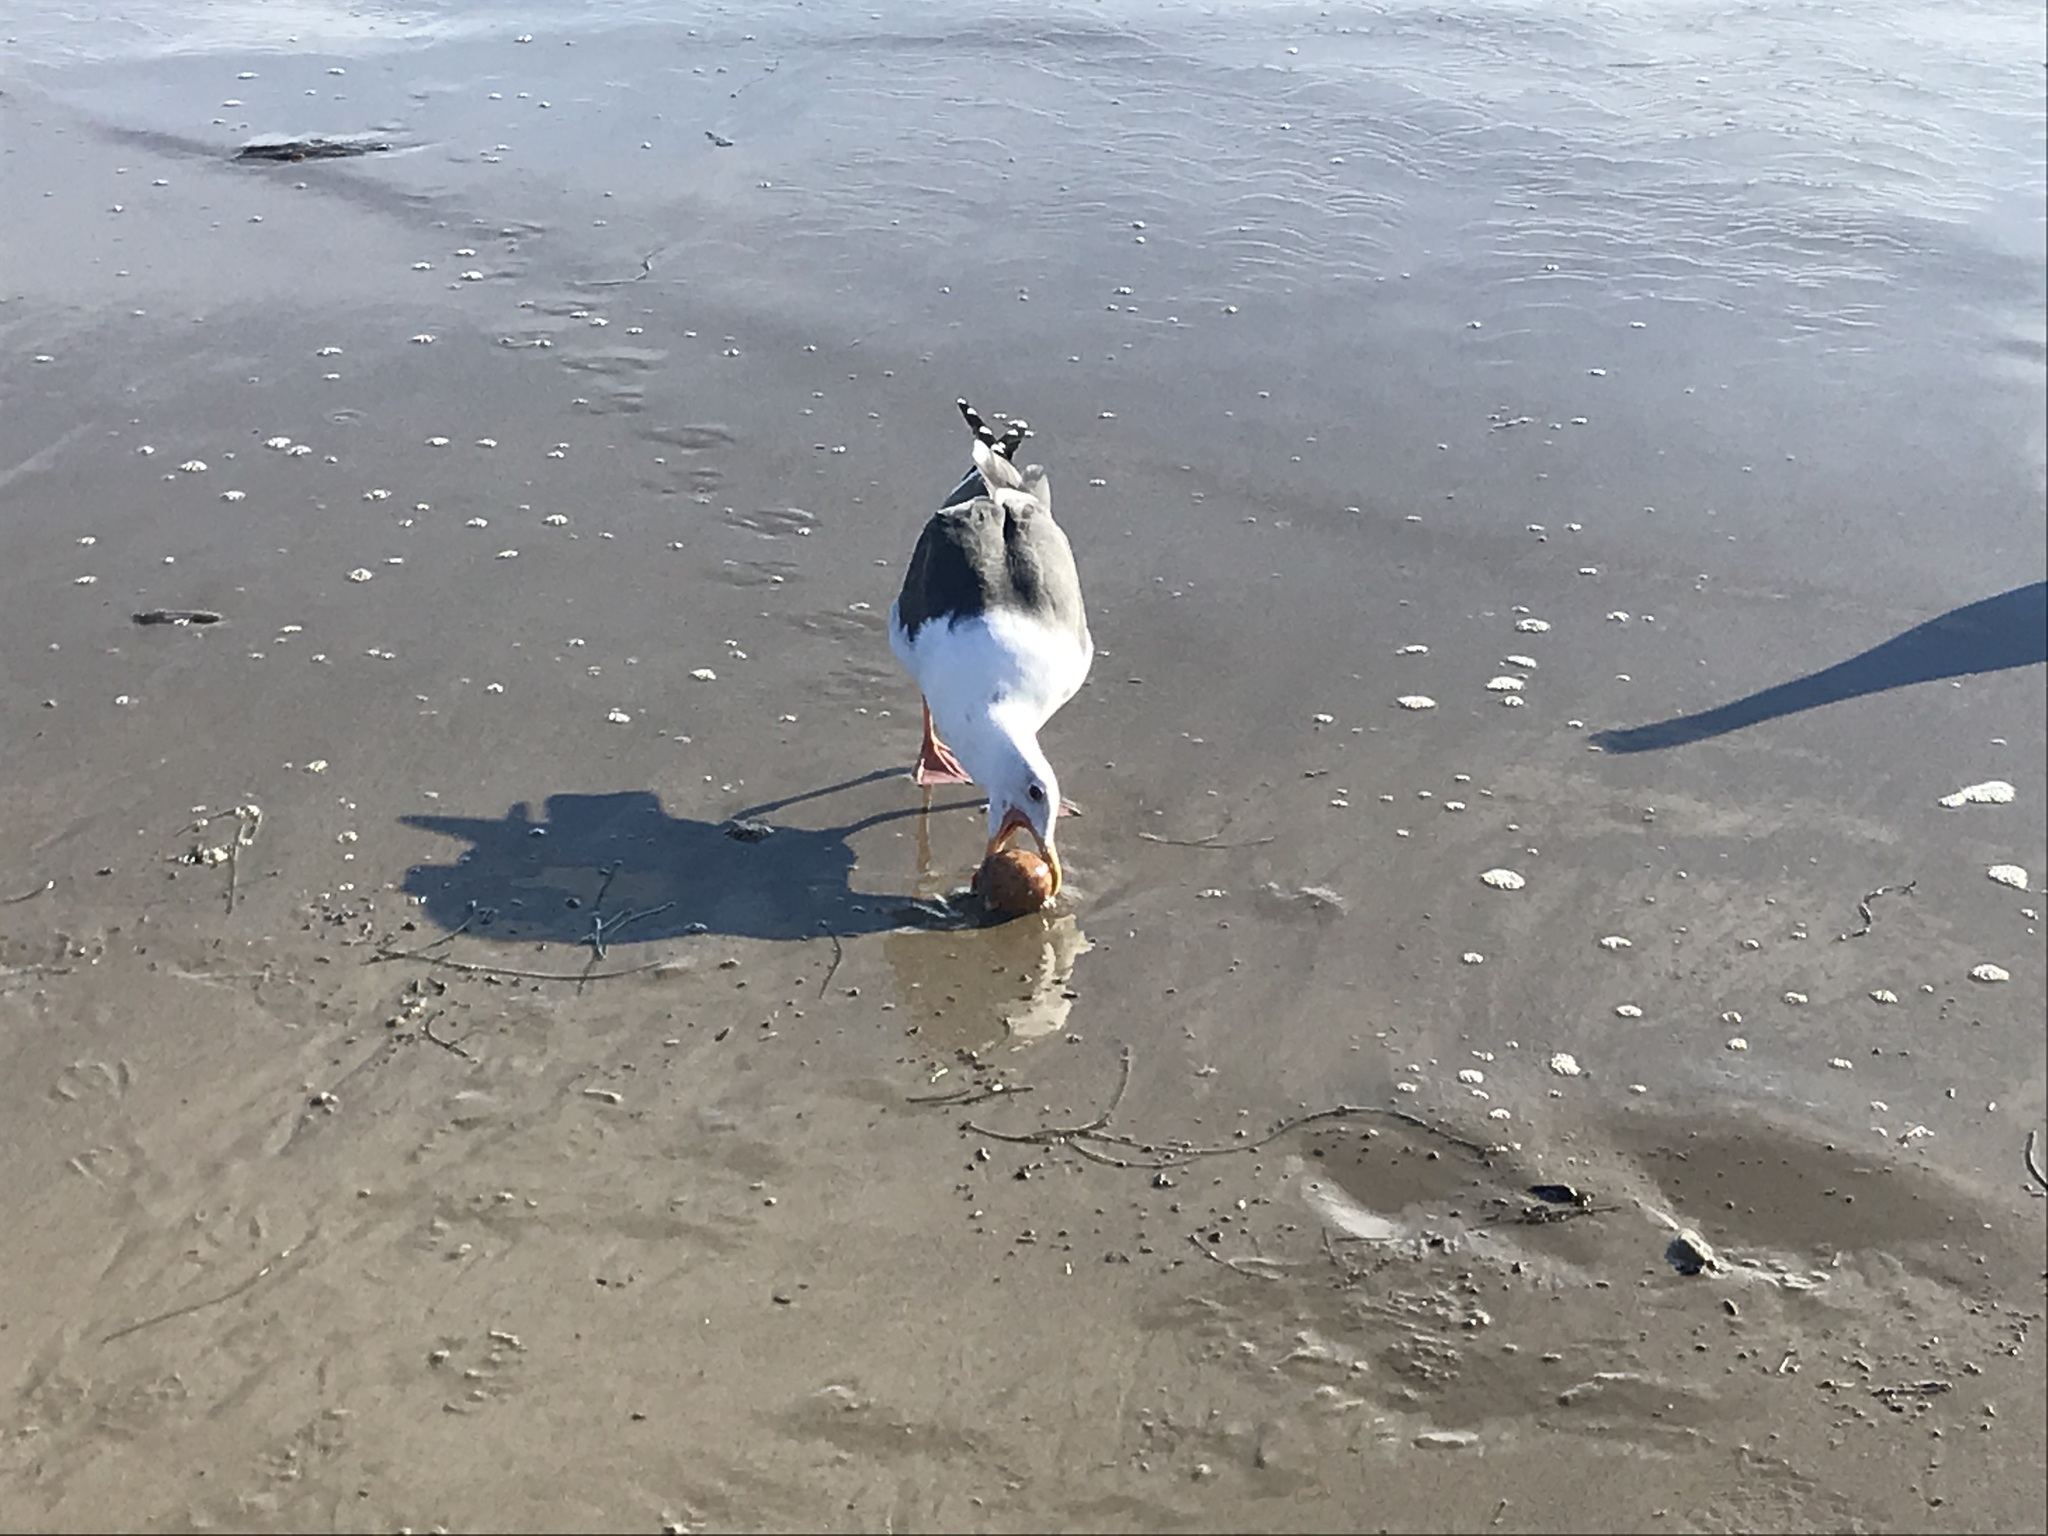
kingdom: Animalia
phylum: Echinodermata
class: Holothuroidea
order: Molpadida
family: Caudinidae
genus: Caudina
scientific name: Caudina arenicola
